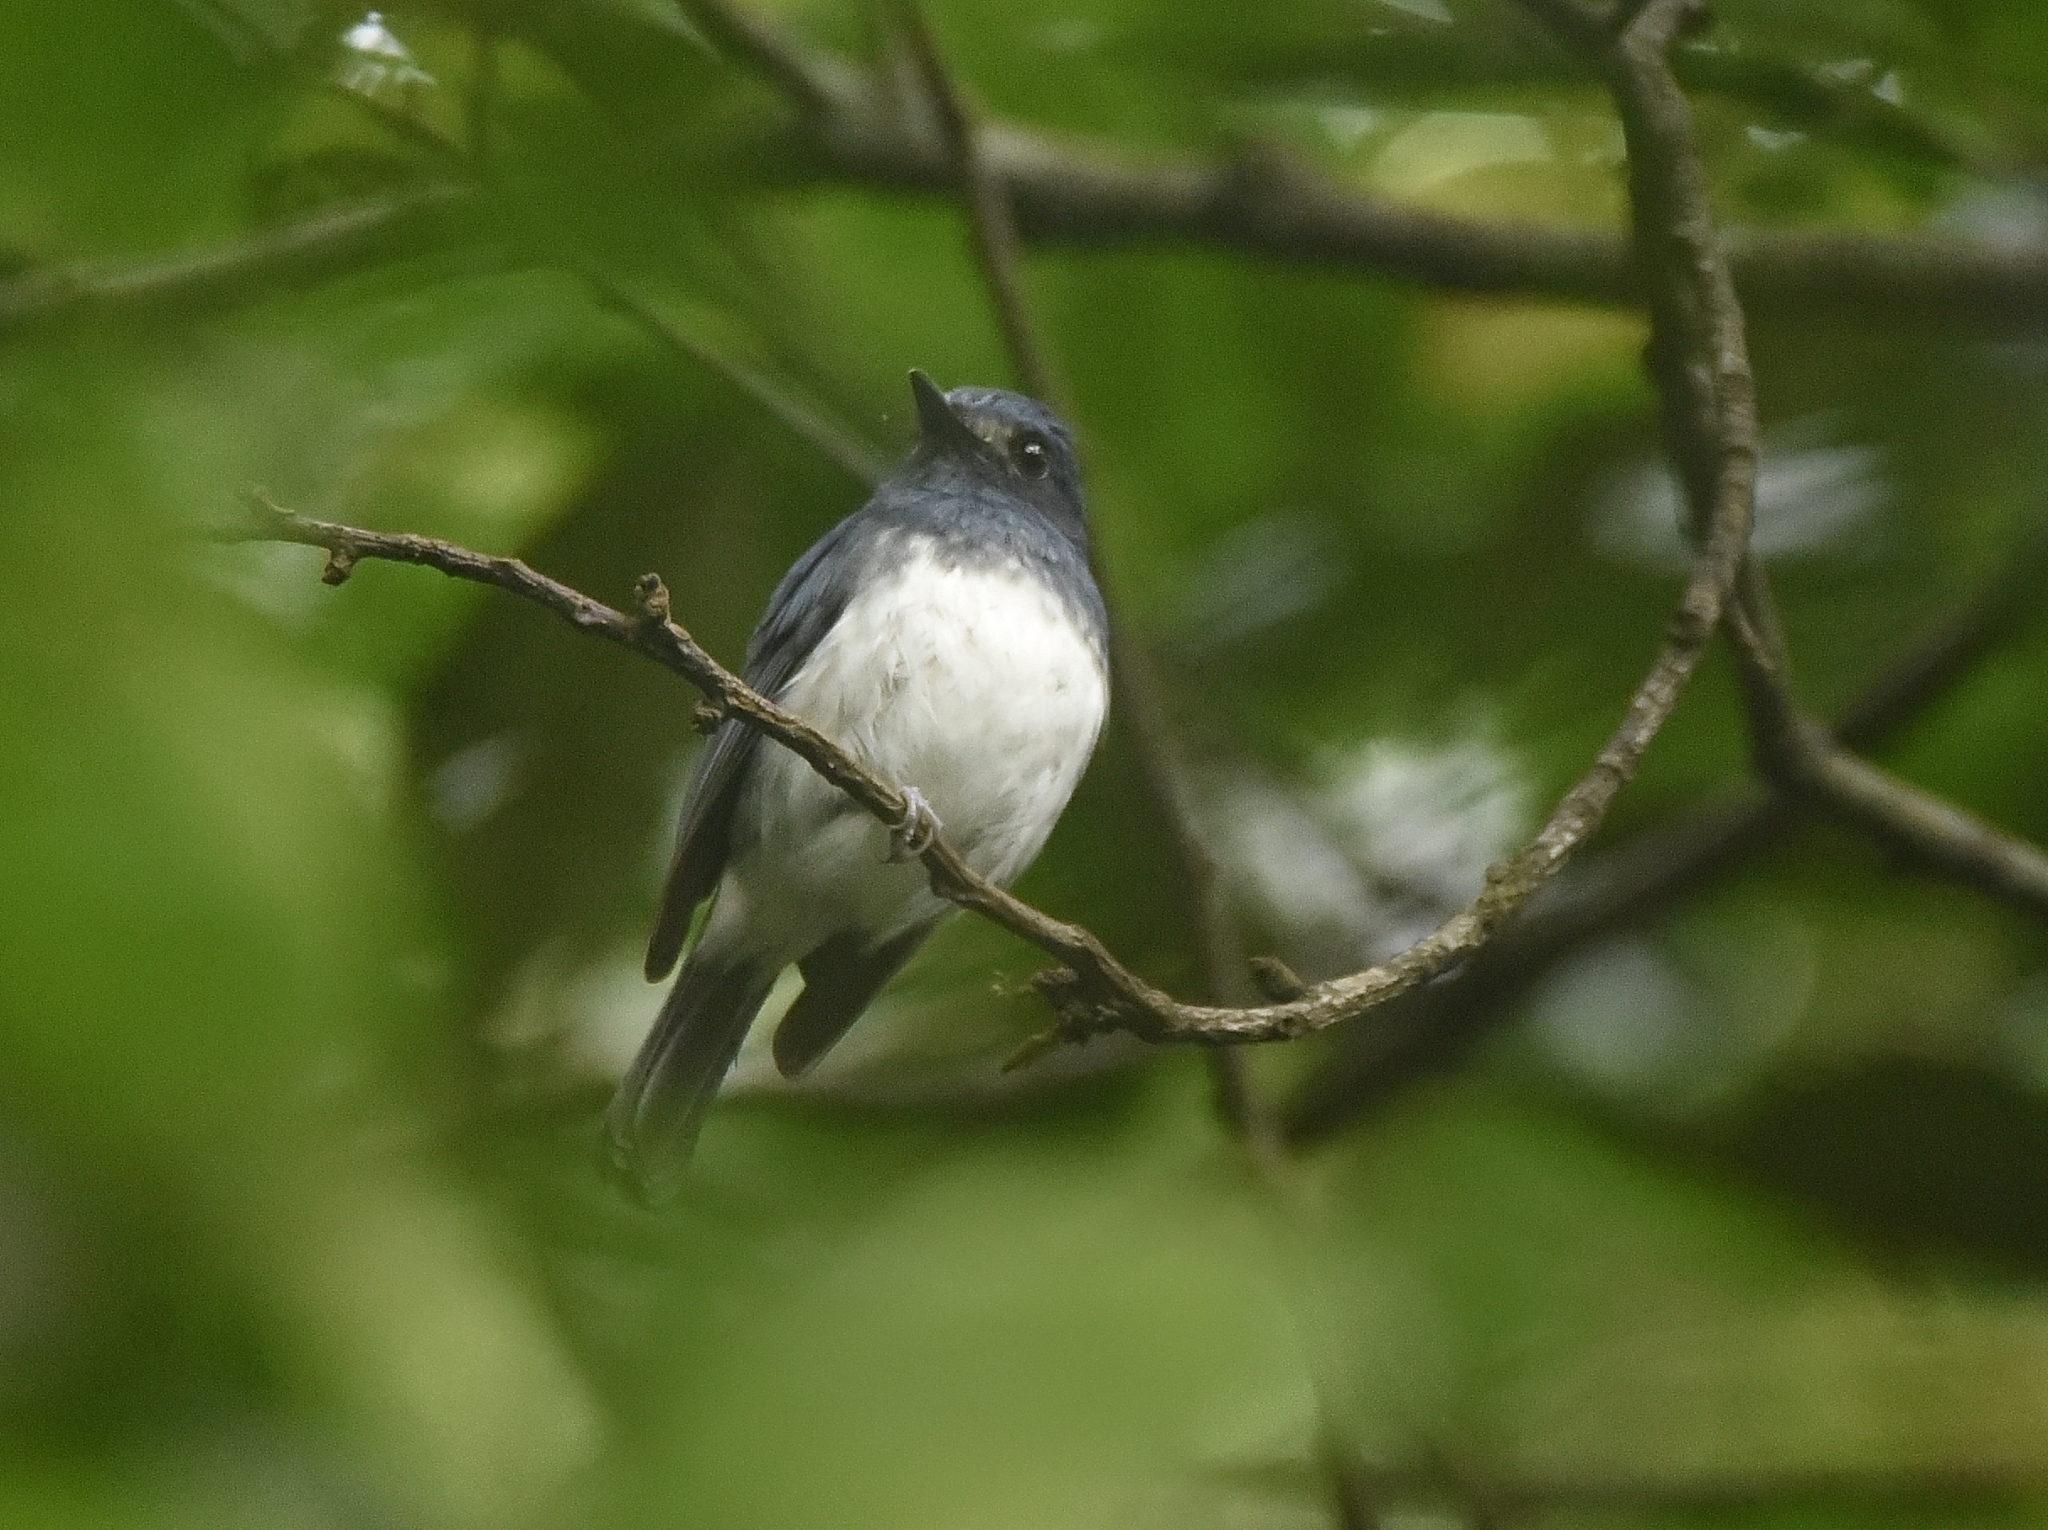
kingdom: Animalia
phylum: Chordata
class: Aves
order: Passeriformes
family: Muscicapidae
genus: Cyornis
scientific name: Cyornis pallidipes
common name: White-bellied blue flycatcher
